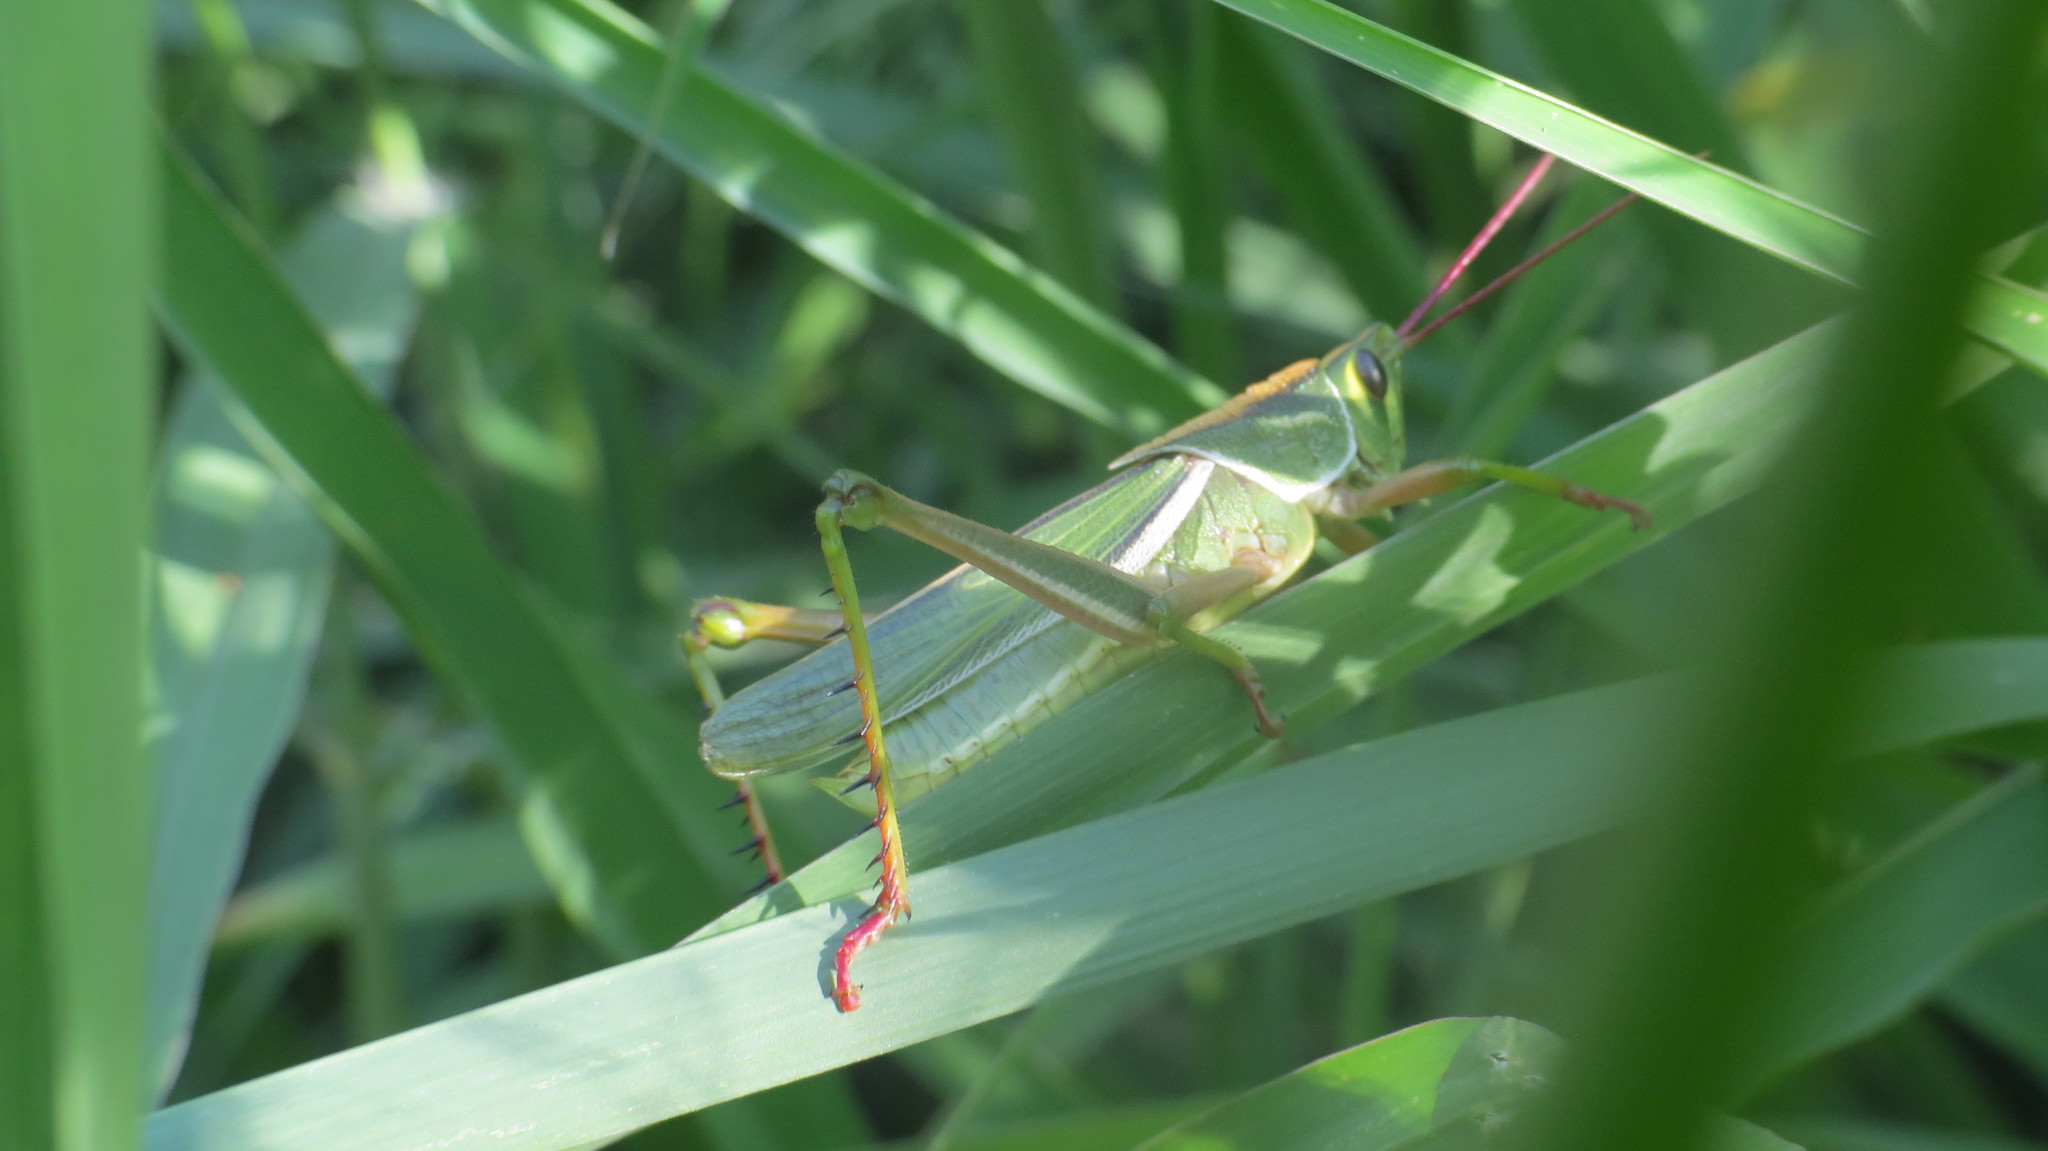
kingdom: Animalia
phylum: Arthropoda
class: Insecta
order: Orthoptera
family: Romaleidae
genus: Staleochlora
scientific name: Staleochlora viridicata
